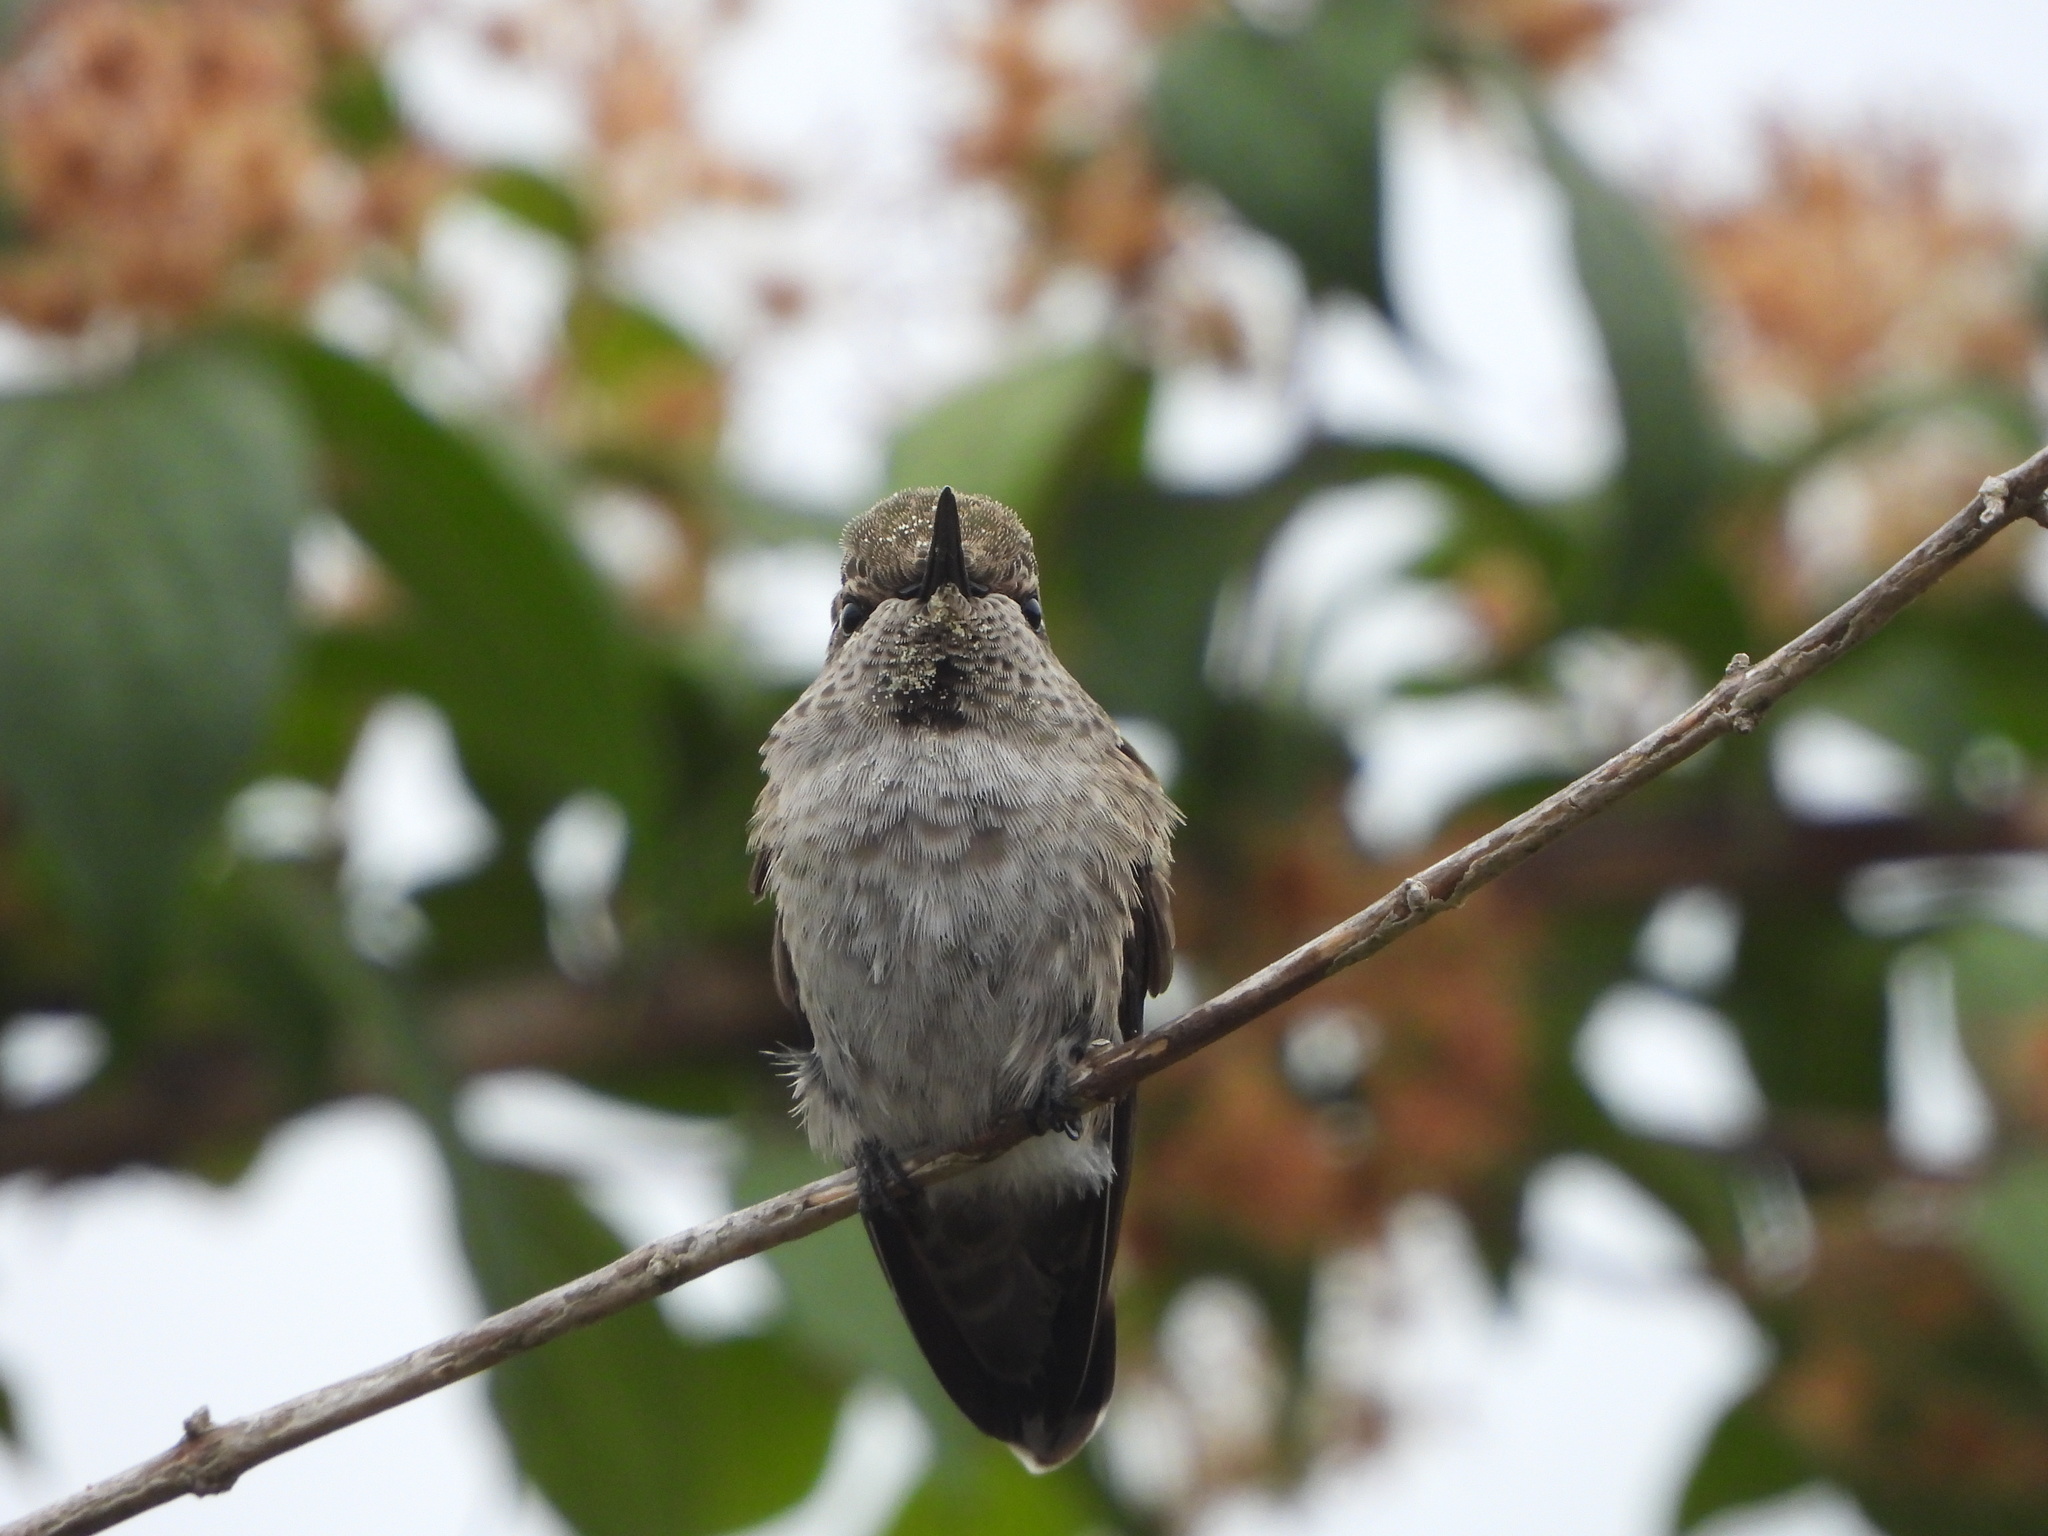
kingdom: Animalia
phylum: Chordata
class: Aves
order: Apodiformes
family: Trochilidae
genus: Calypte
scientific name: Calypte anna
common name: Anna's hummingbird
